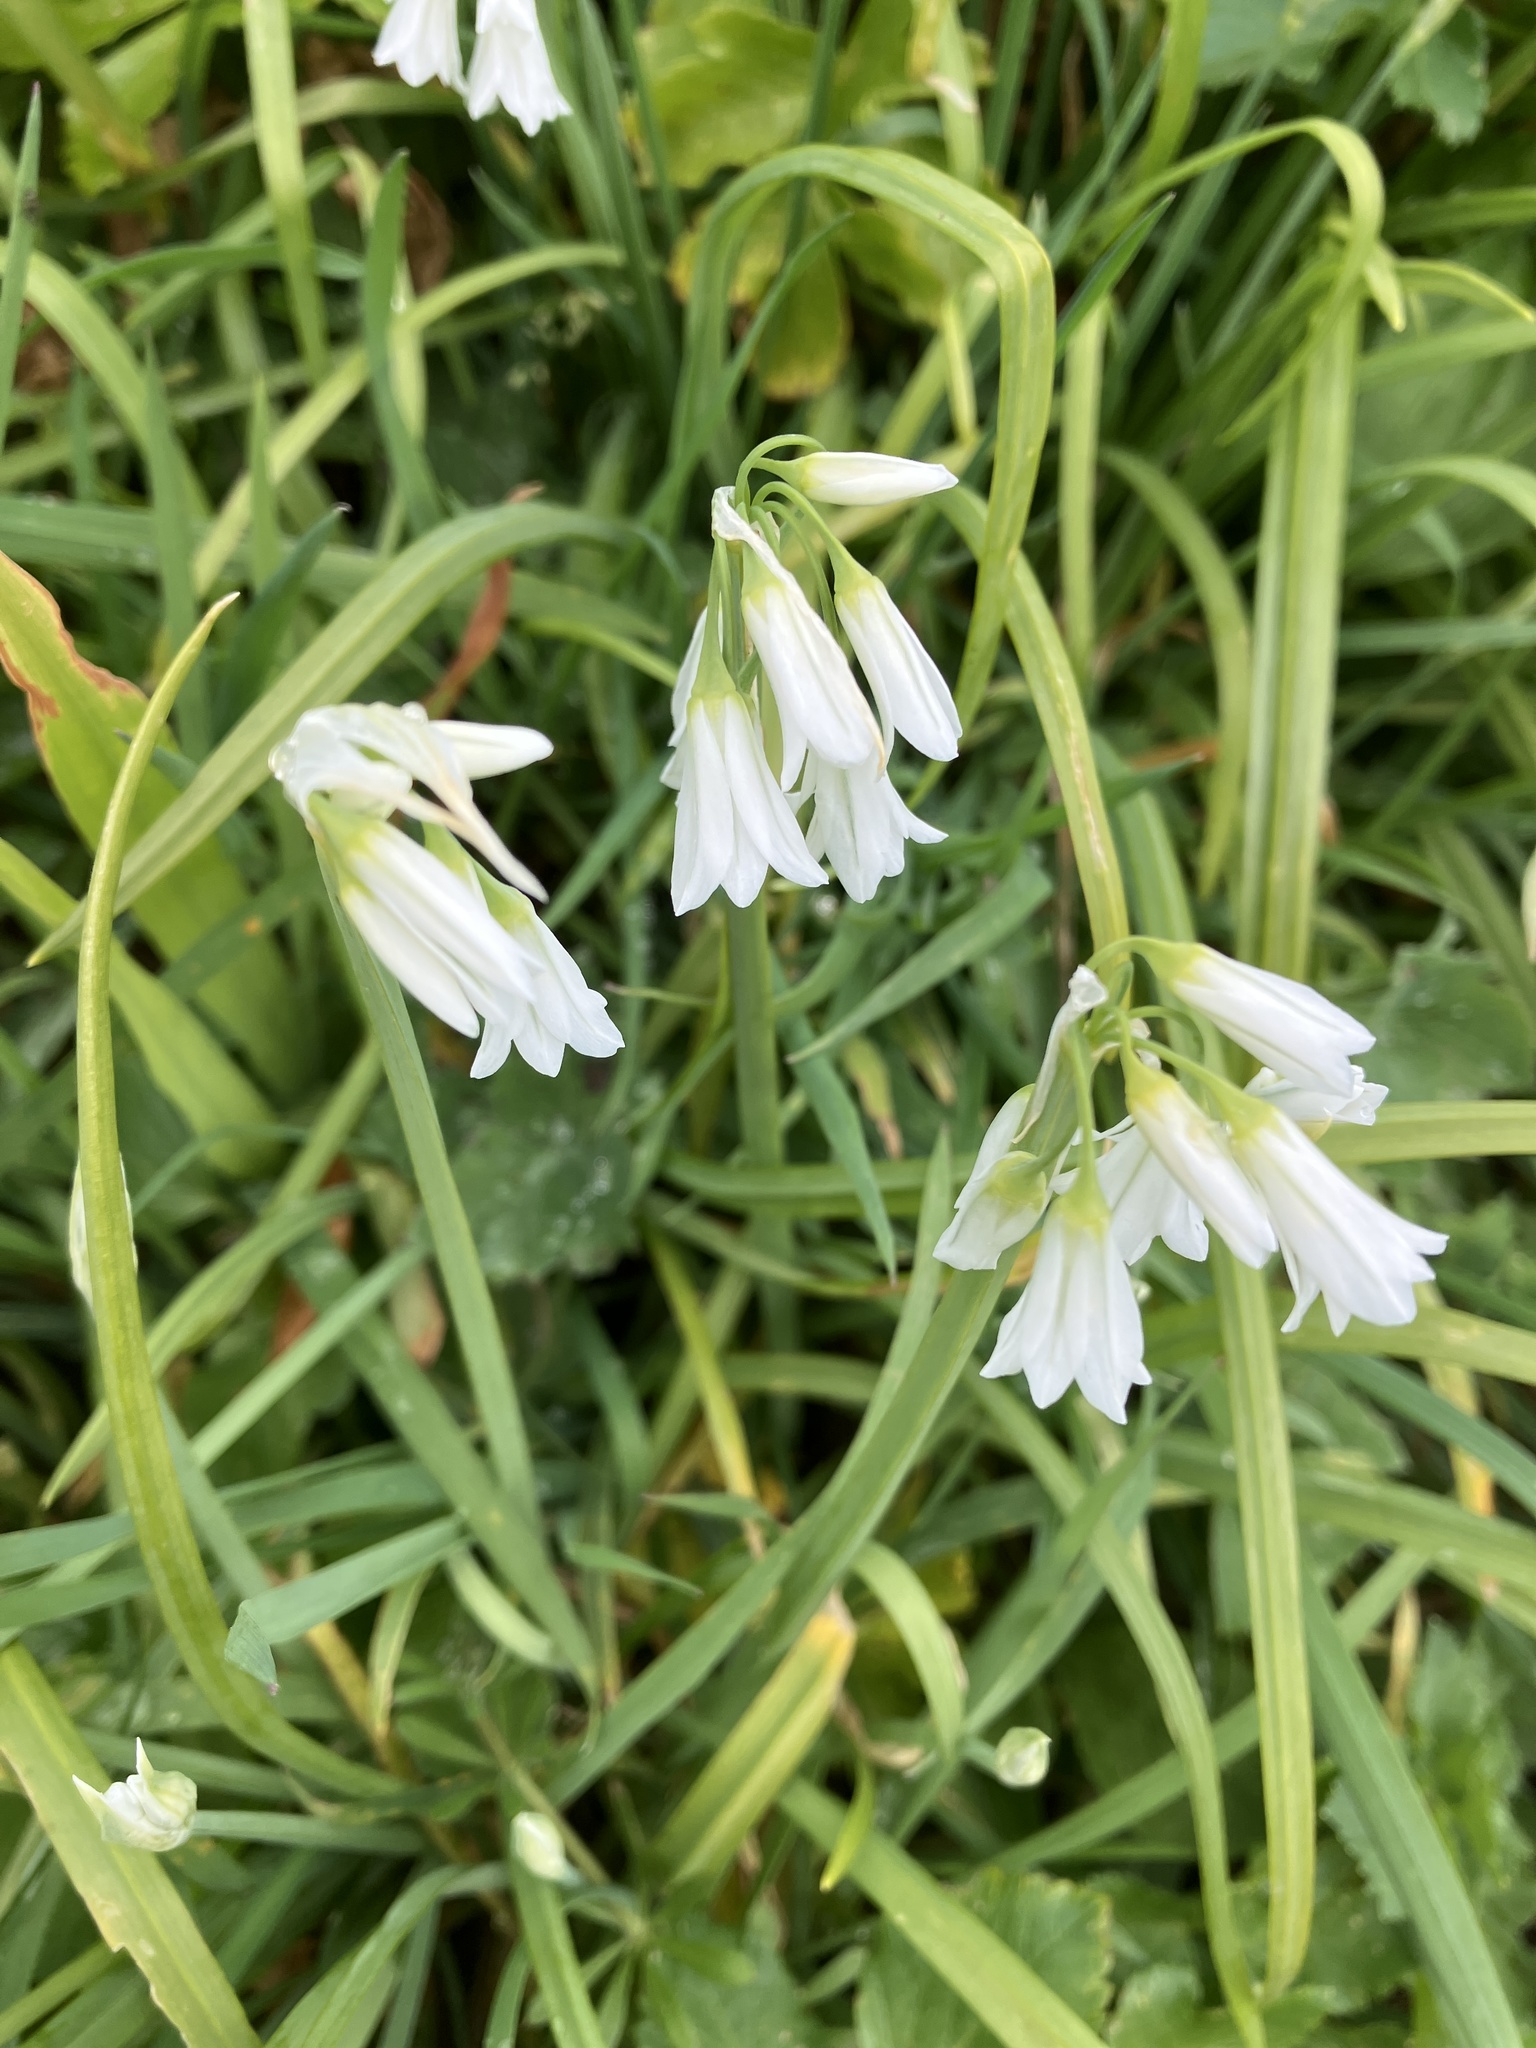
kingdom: Plantae
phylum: Tracheophyta
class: Liliopsida
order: Asparagales
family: Amaryllidaceae
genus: Allium
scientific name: Allium triquetrum
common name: Three-cornered garlic
